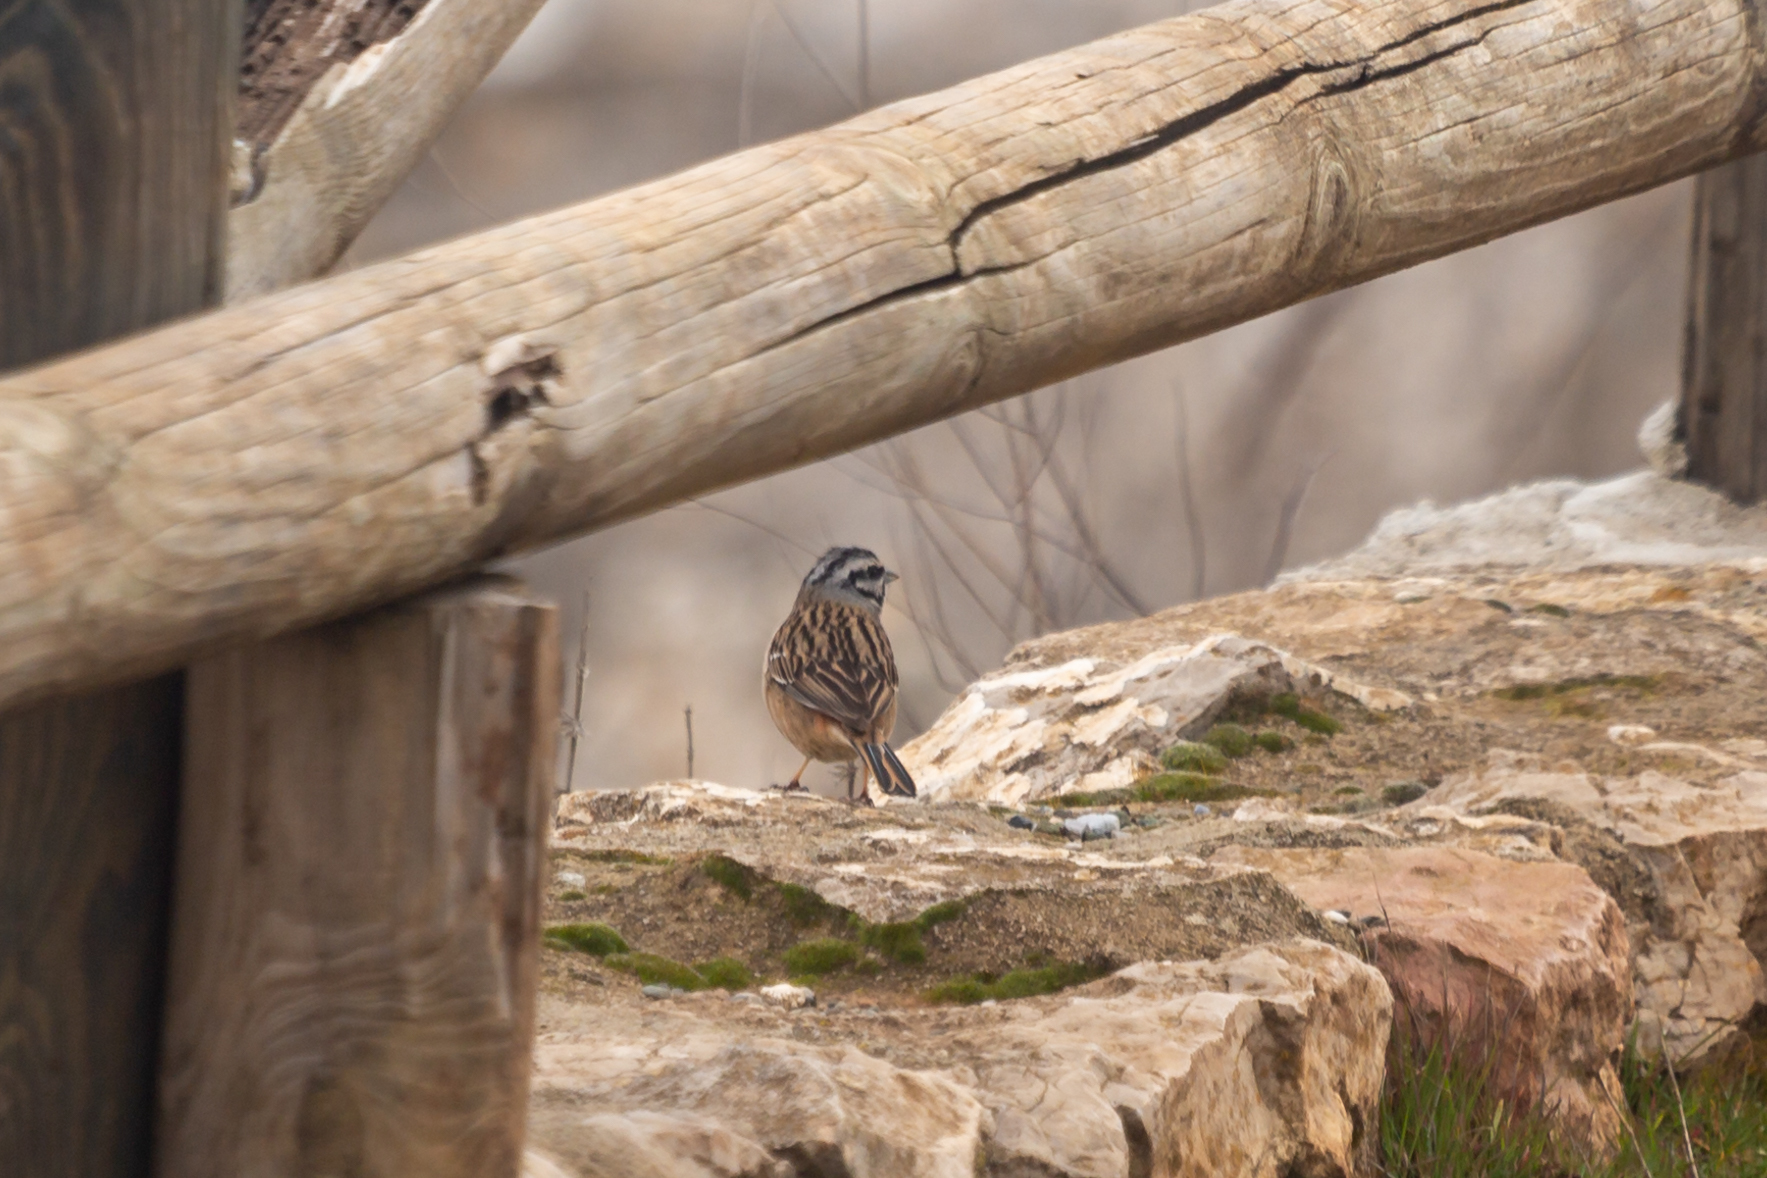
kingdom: Animalia
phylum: Chordata
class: Aves
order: Passeriformes
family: Emberizidae
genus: Emberiza
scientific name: Emberiza cia
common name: Rock bunting
